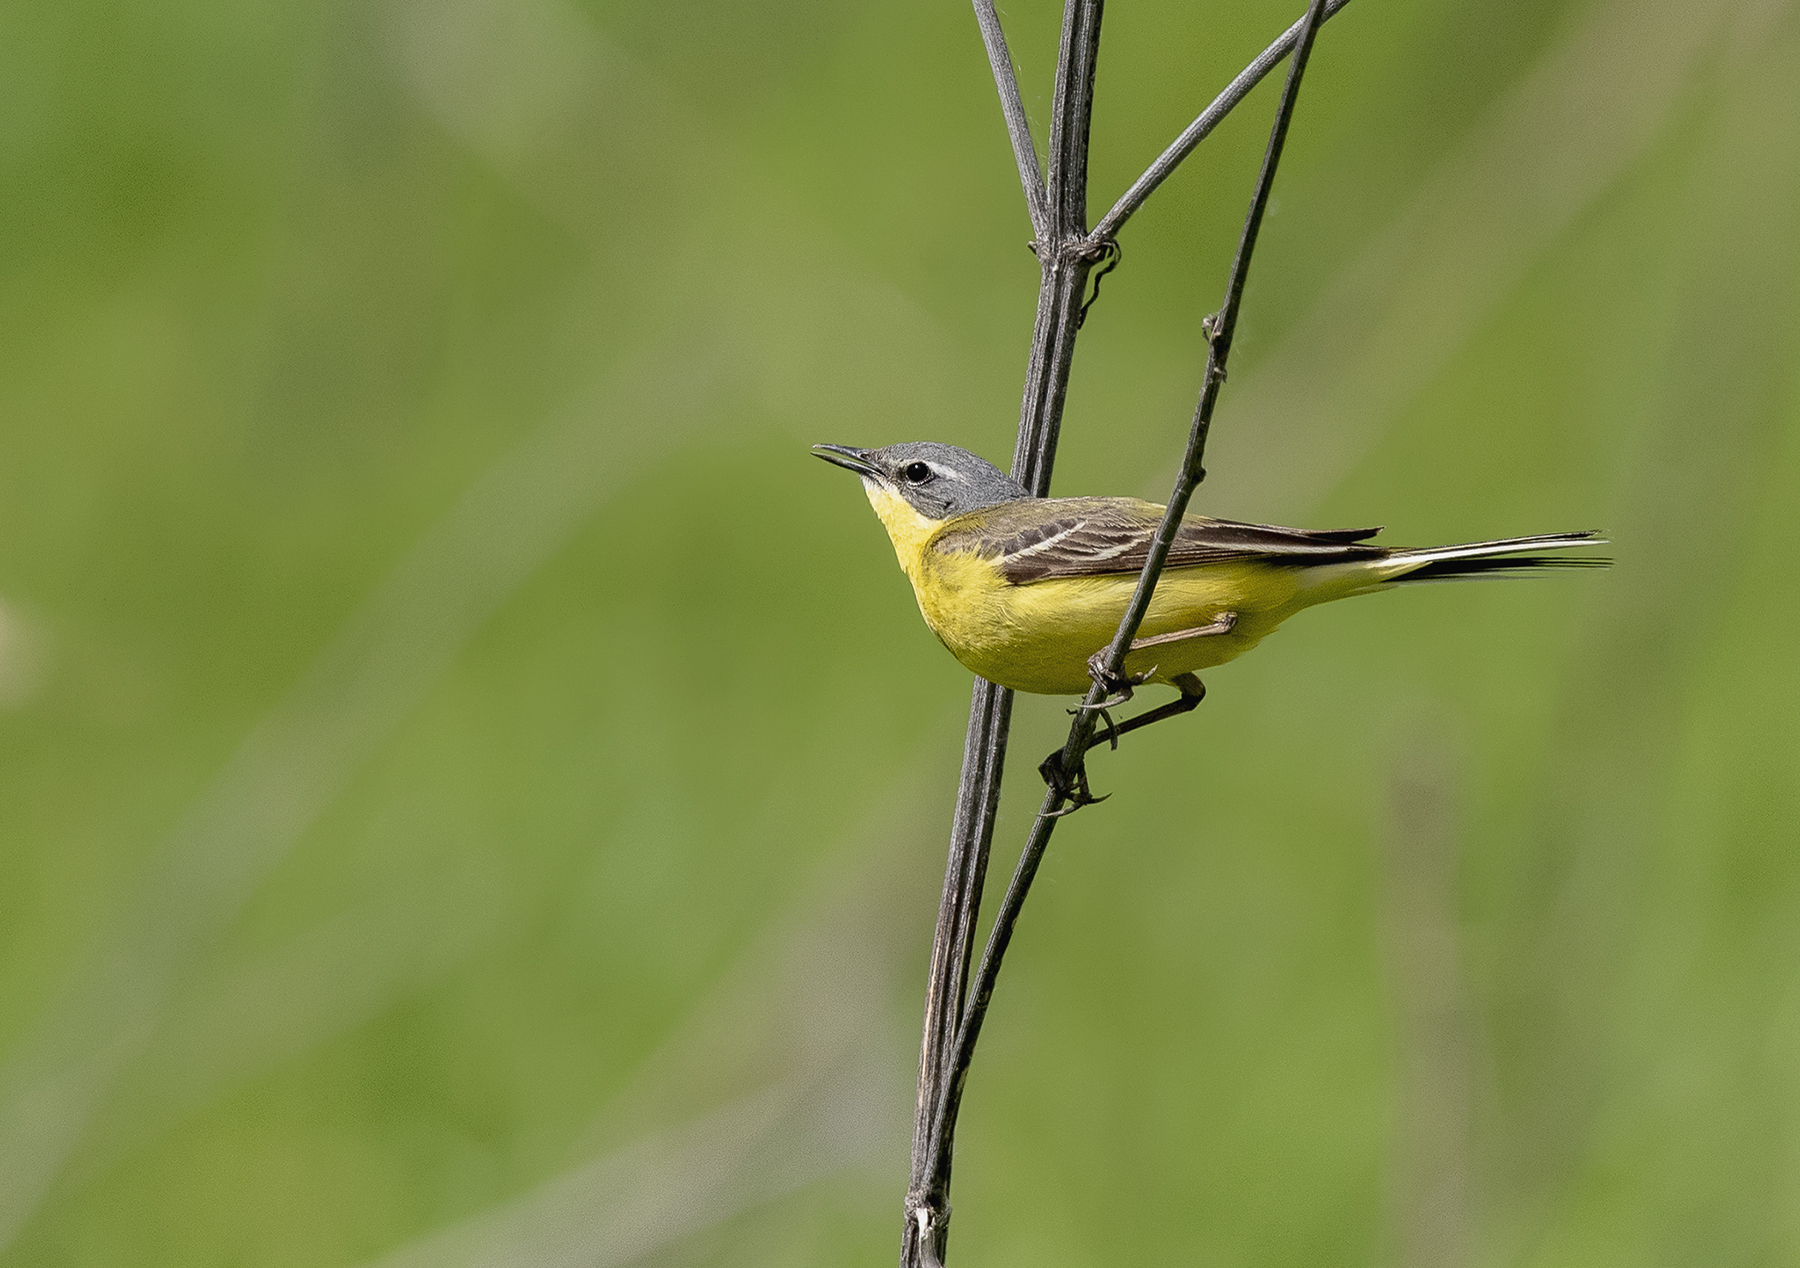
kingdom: Animalia
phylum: Chordata
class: Aves
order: Passeriformes
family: Motacillidae
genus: Motacilla
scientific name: Motacilla flava
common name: Western yellow wagtail
